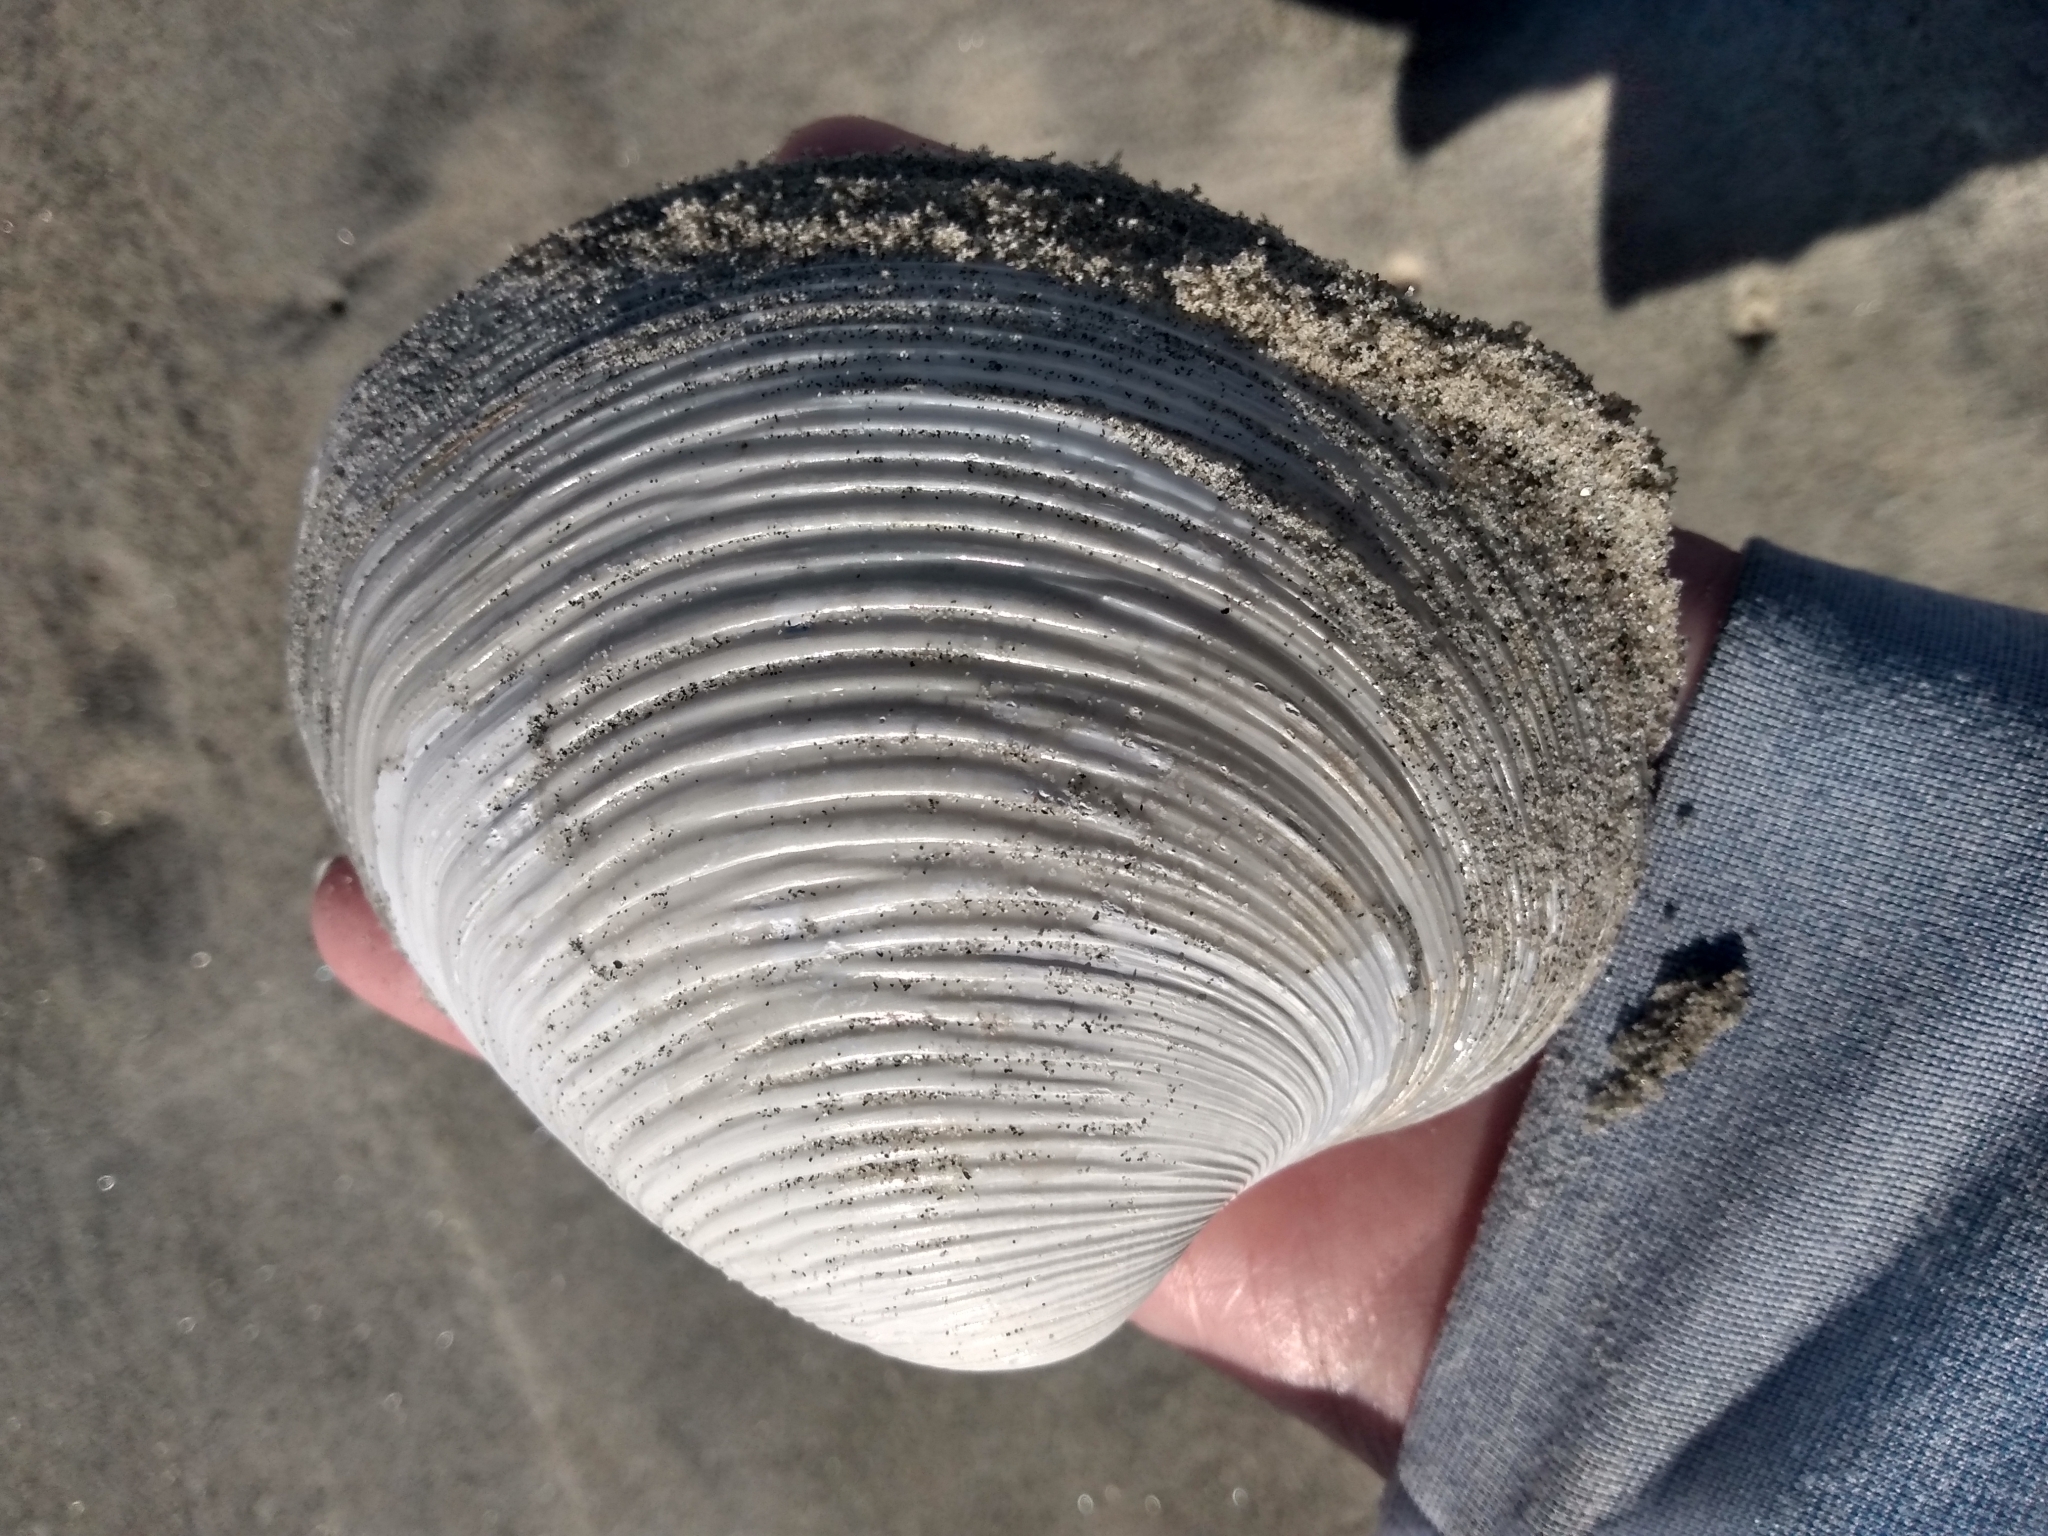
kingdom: Animalia
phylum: Mollusca
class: Bivalvia
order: Venerida
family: Veneridae
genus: Amiantis
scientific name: Amiantis callosa
